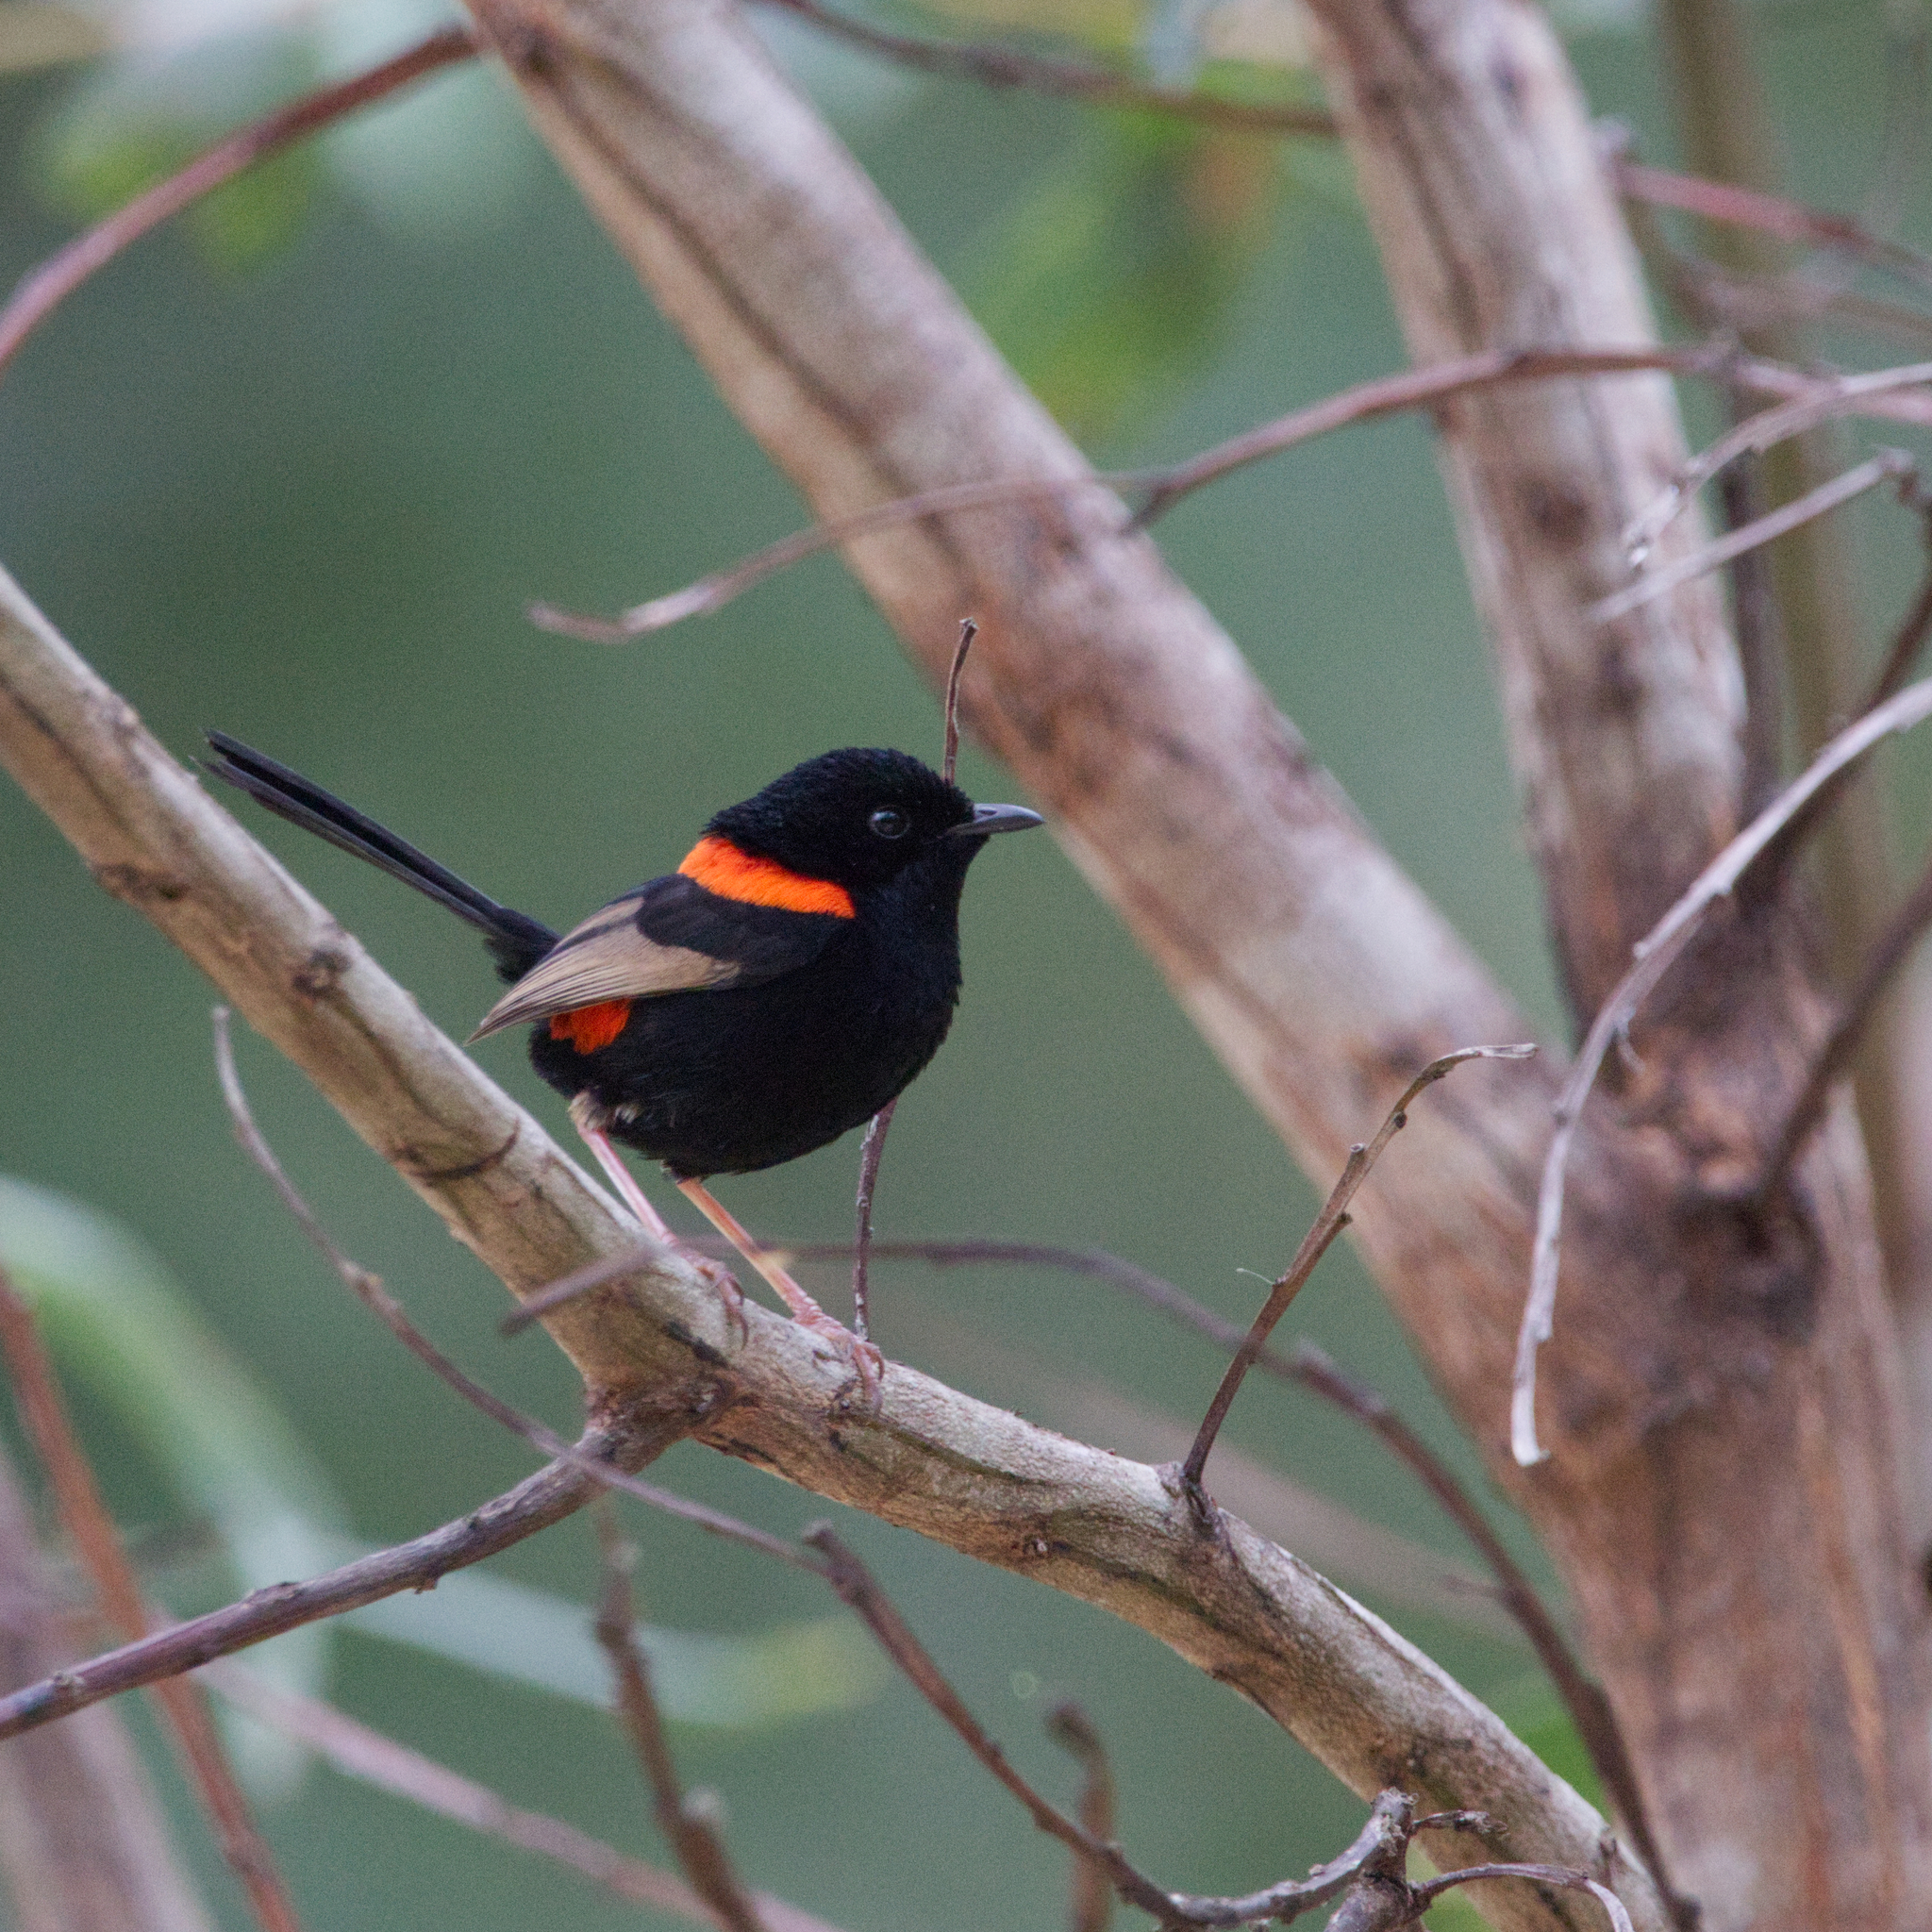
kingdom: Animalia
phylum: Chordata
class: Aves
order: Passeriformes
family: Maluridae
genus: Malurus
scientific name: Malurus melanocephalus
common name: Red-backed fairywren
